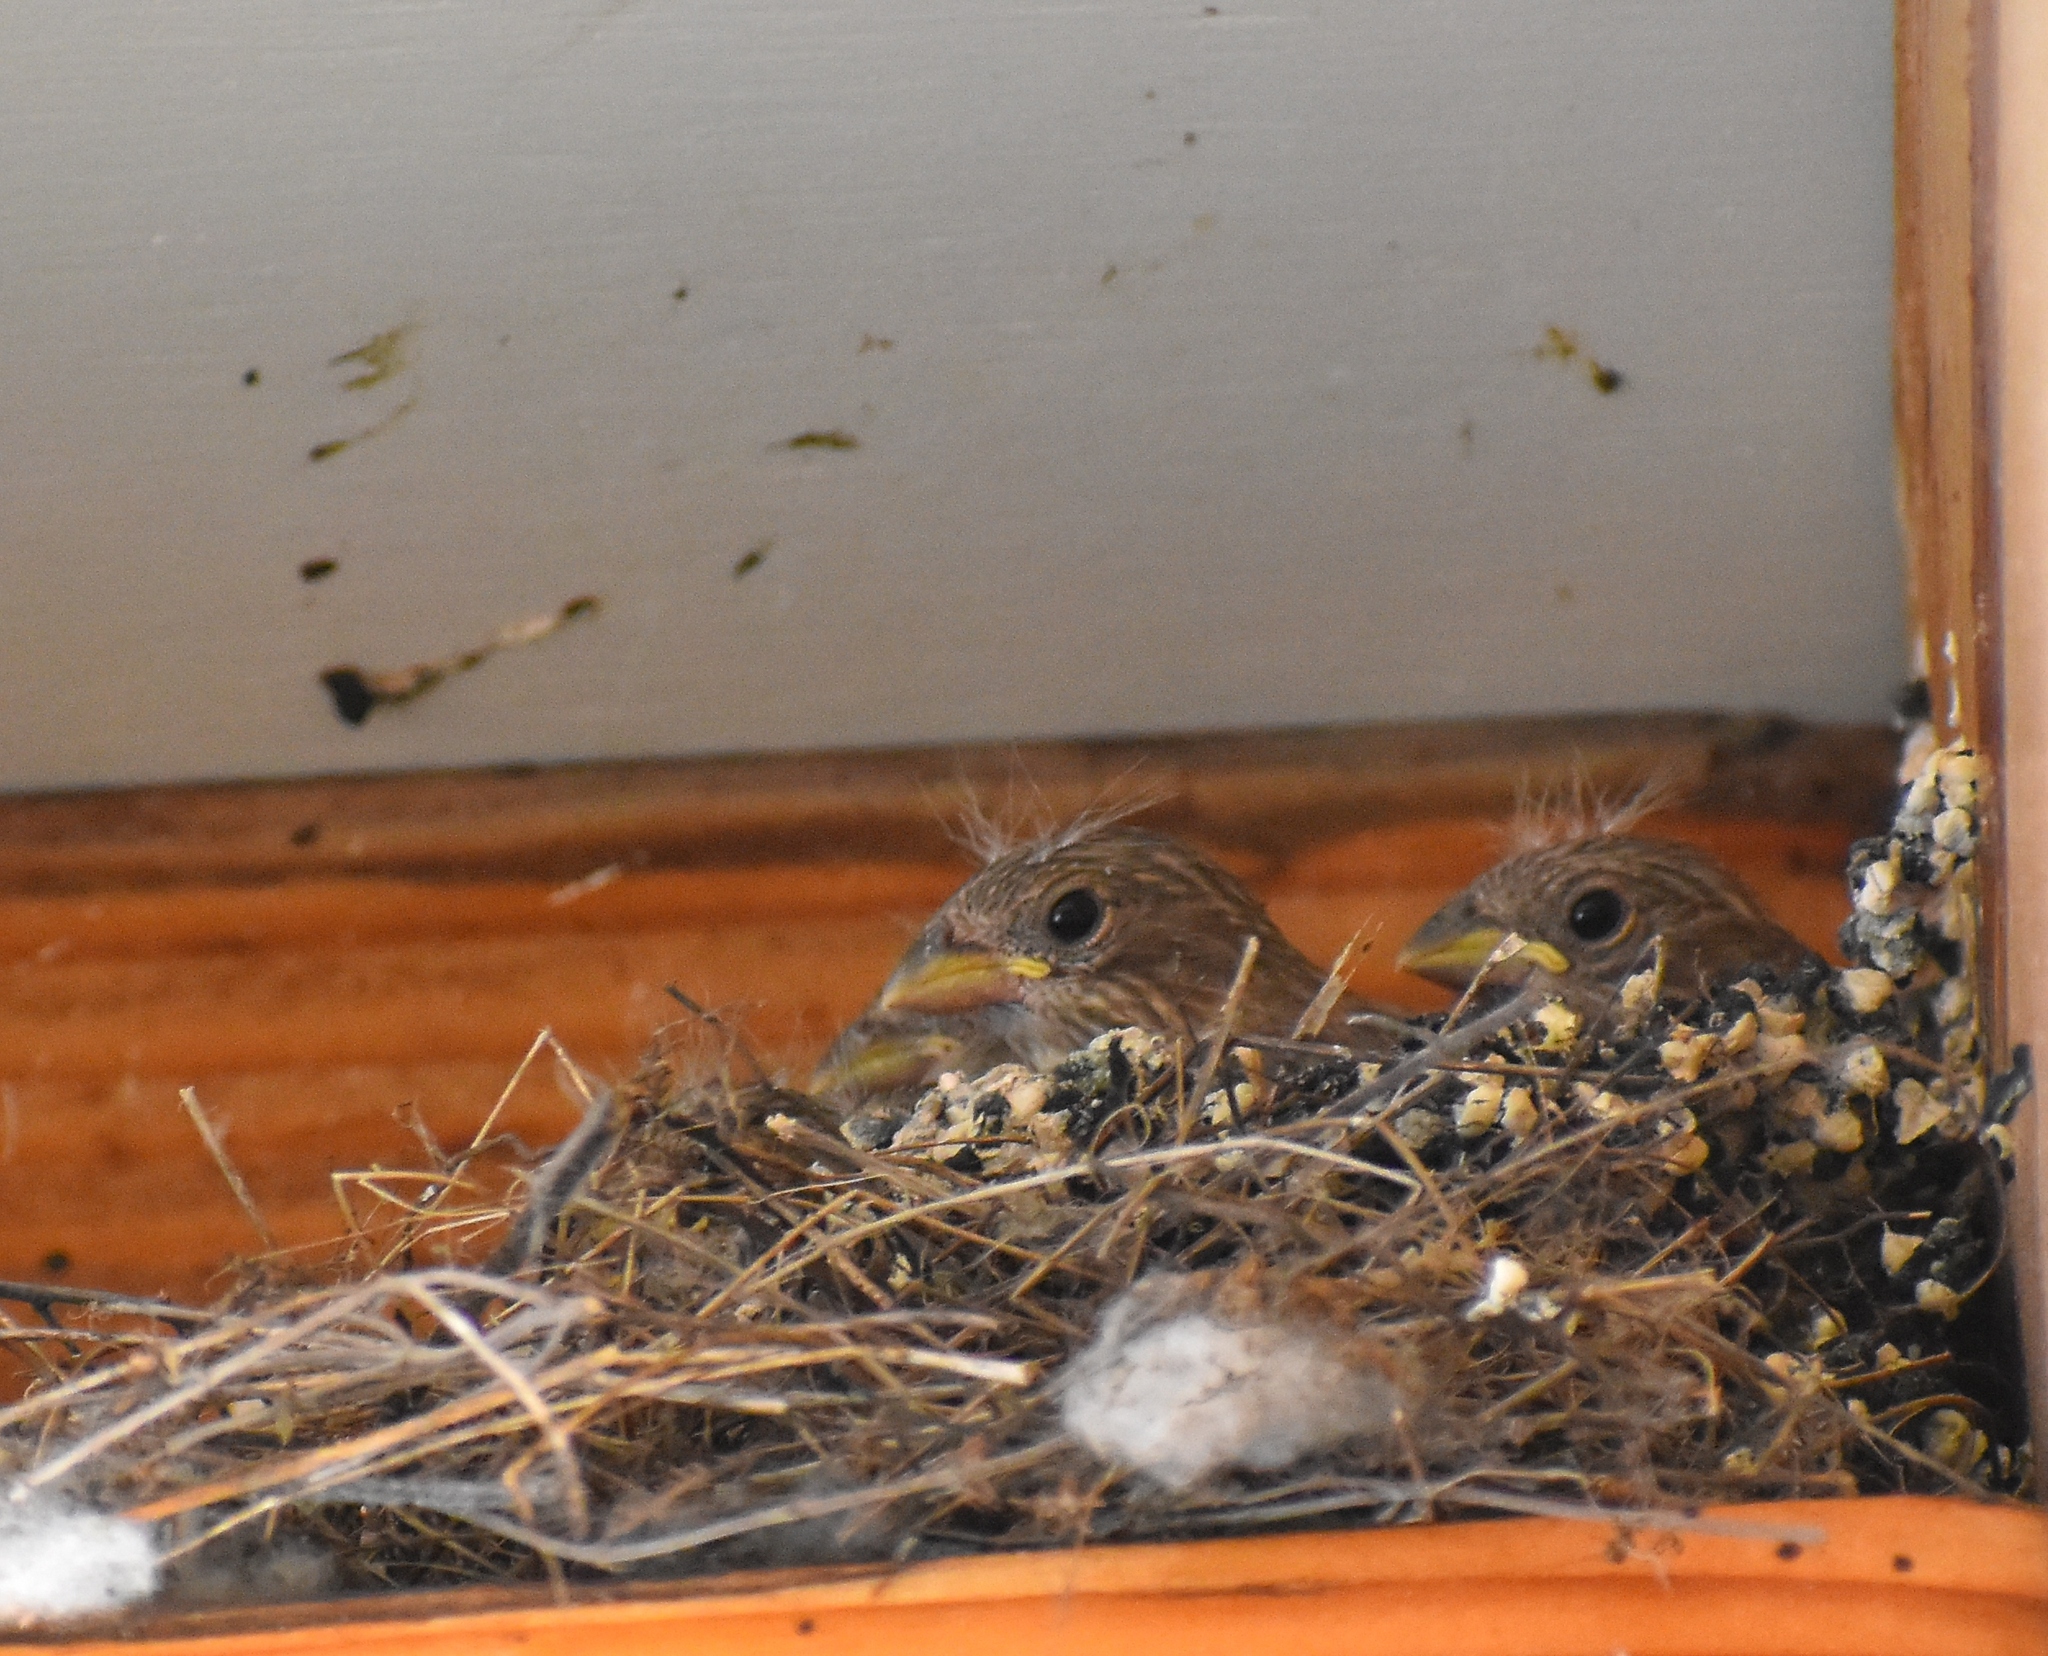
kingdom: Animalia
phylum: Chordata
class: Aves
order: Passeriformes
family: Fringillidae
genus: Haemorhous
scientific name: Haemorhous mexicanus
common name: House finch
